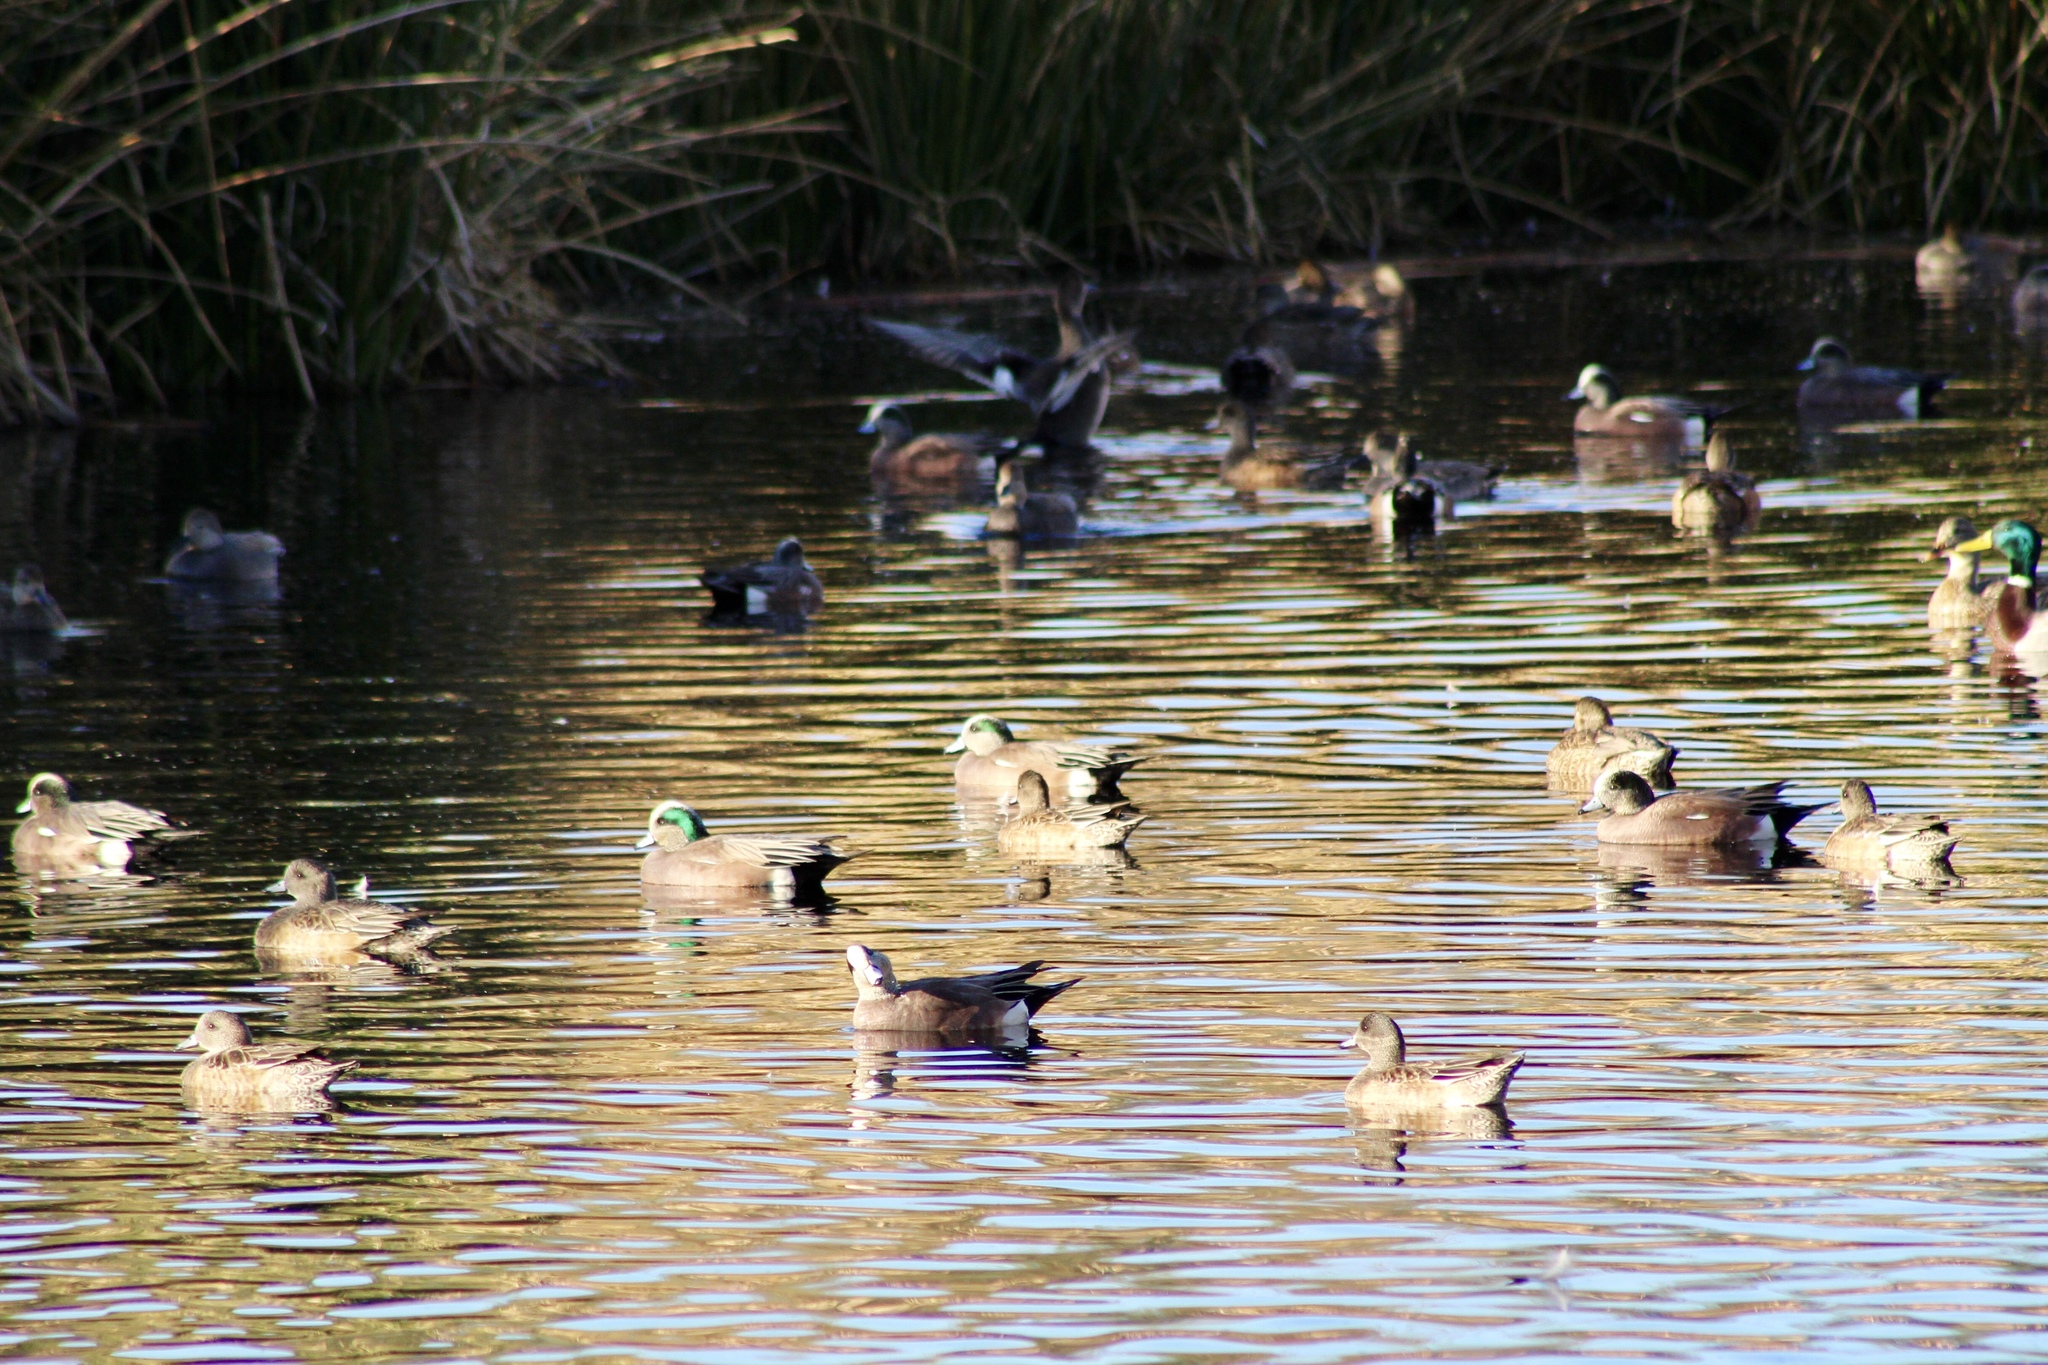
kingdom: Animalia
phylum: Chordata
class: Aves
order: Anseriformes
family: Anatidae
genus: Mareca
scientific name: Mareca americana
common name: American wigeon
